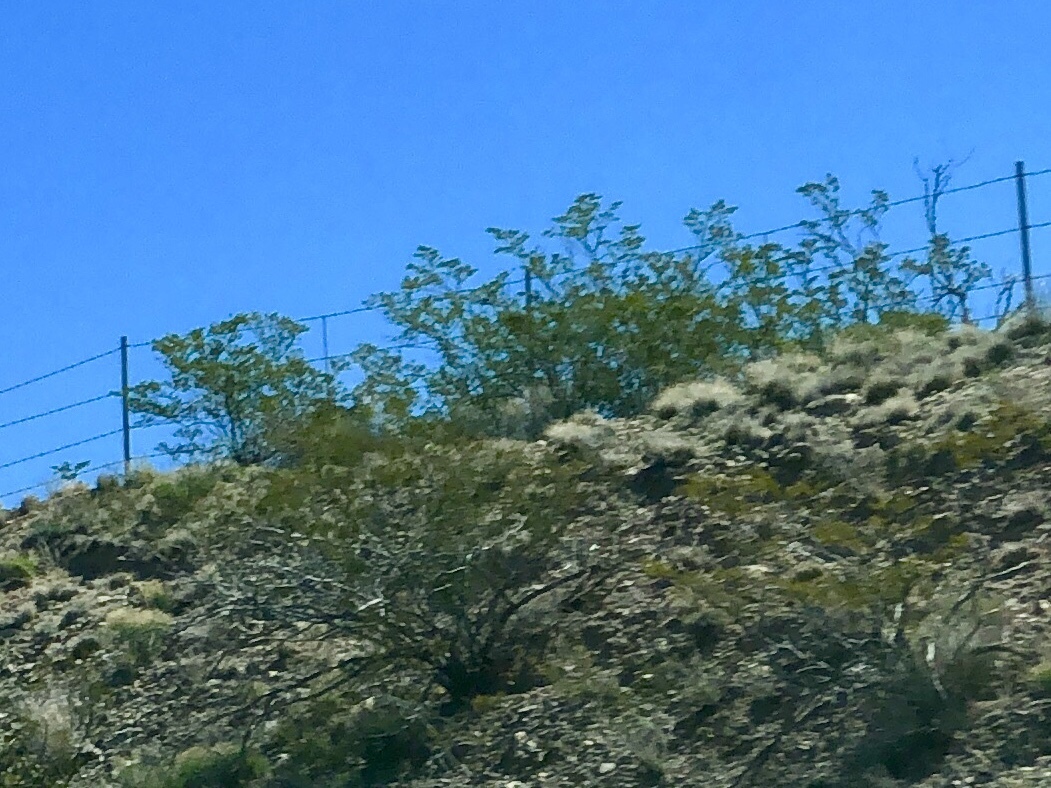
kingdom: Plantae
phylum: Tracheophyta
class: Magnoliopsida
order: Zygophyllales
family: Zygophyllaceae
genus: Larrea
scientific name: Larrea tridentata
